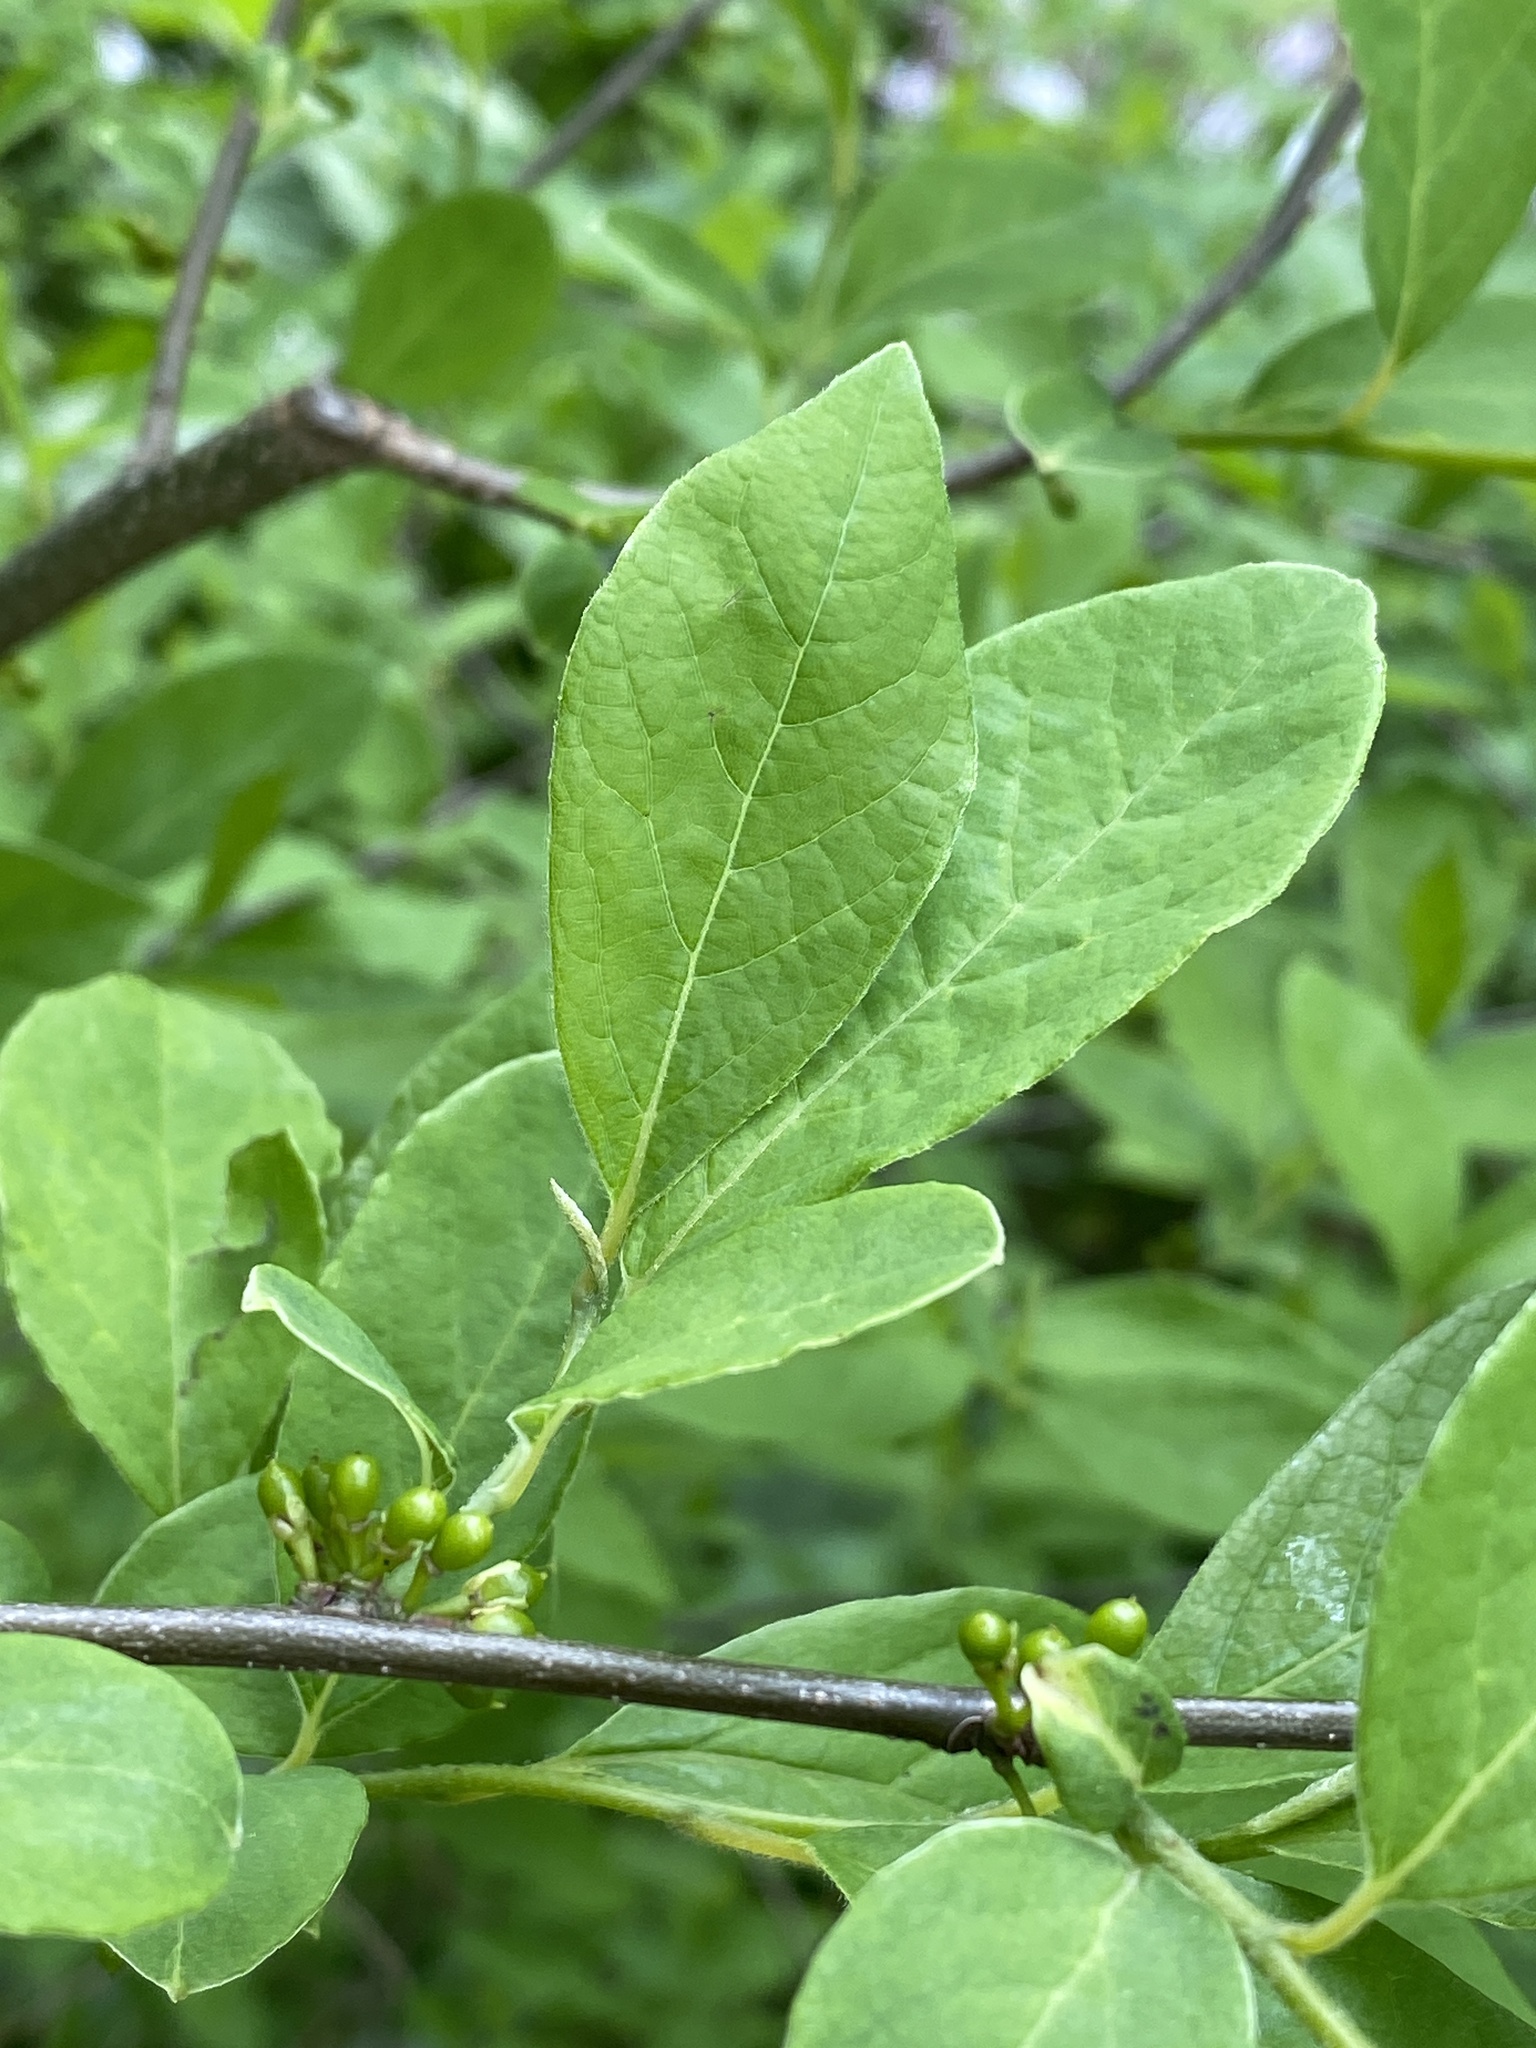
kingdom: Plantae
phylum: Tracheophyta
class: Magnoliopsida
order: Laurales
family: Lauraceae
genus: Lindera
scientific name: Lindera benzoin
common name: Spicebush
